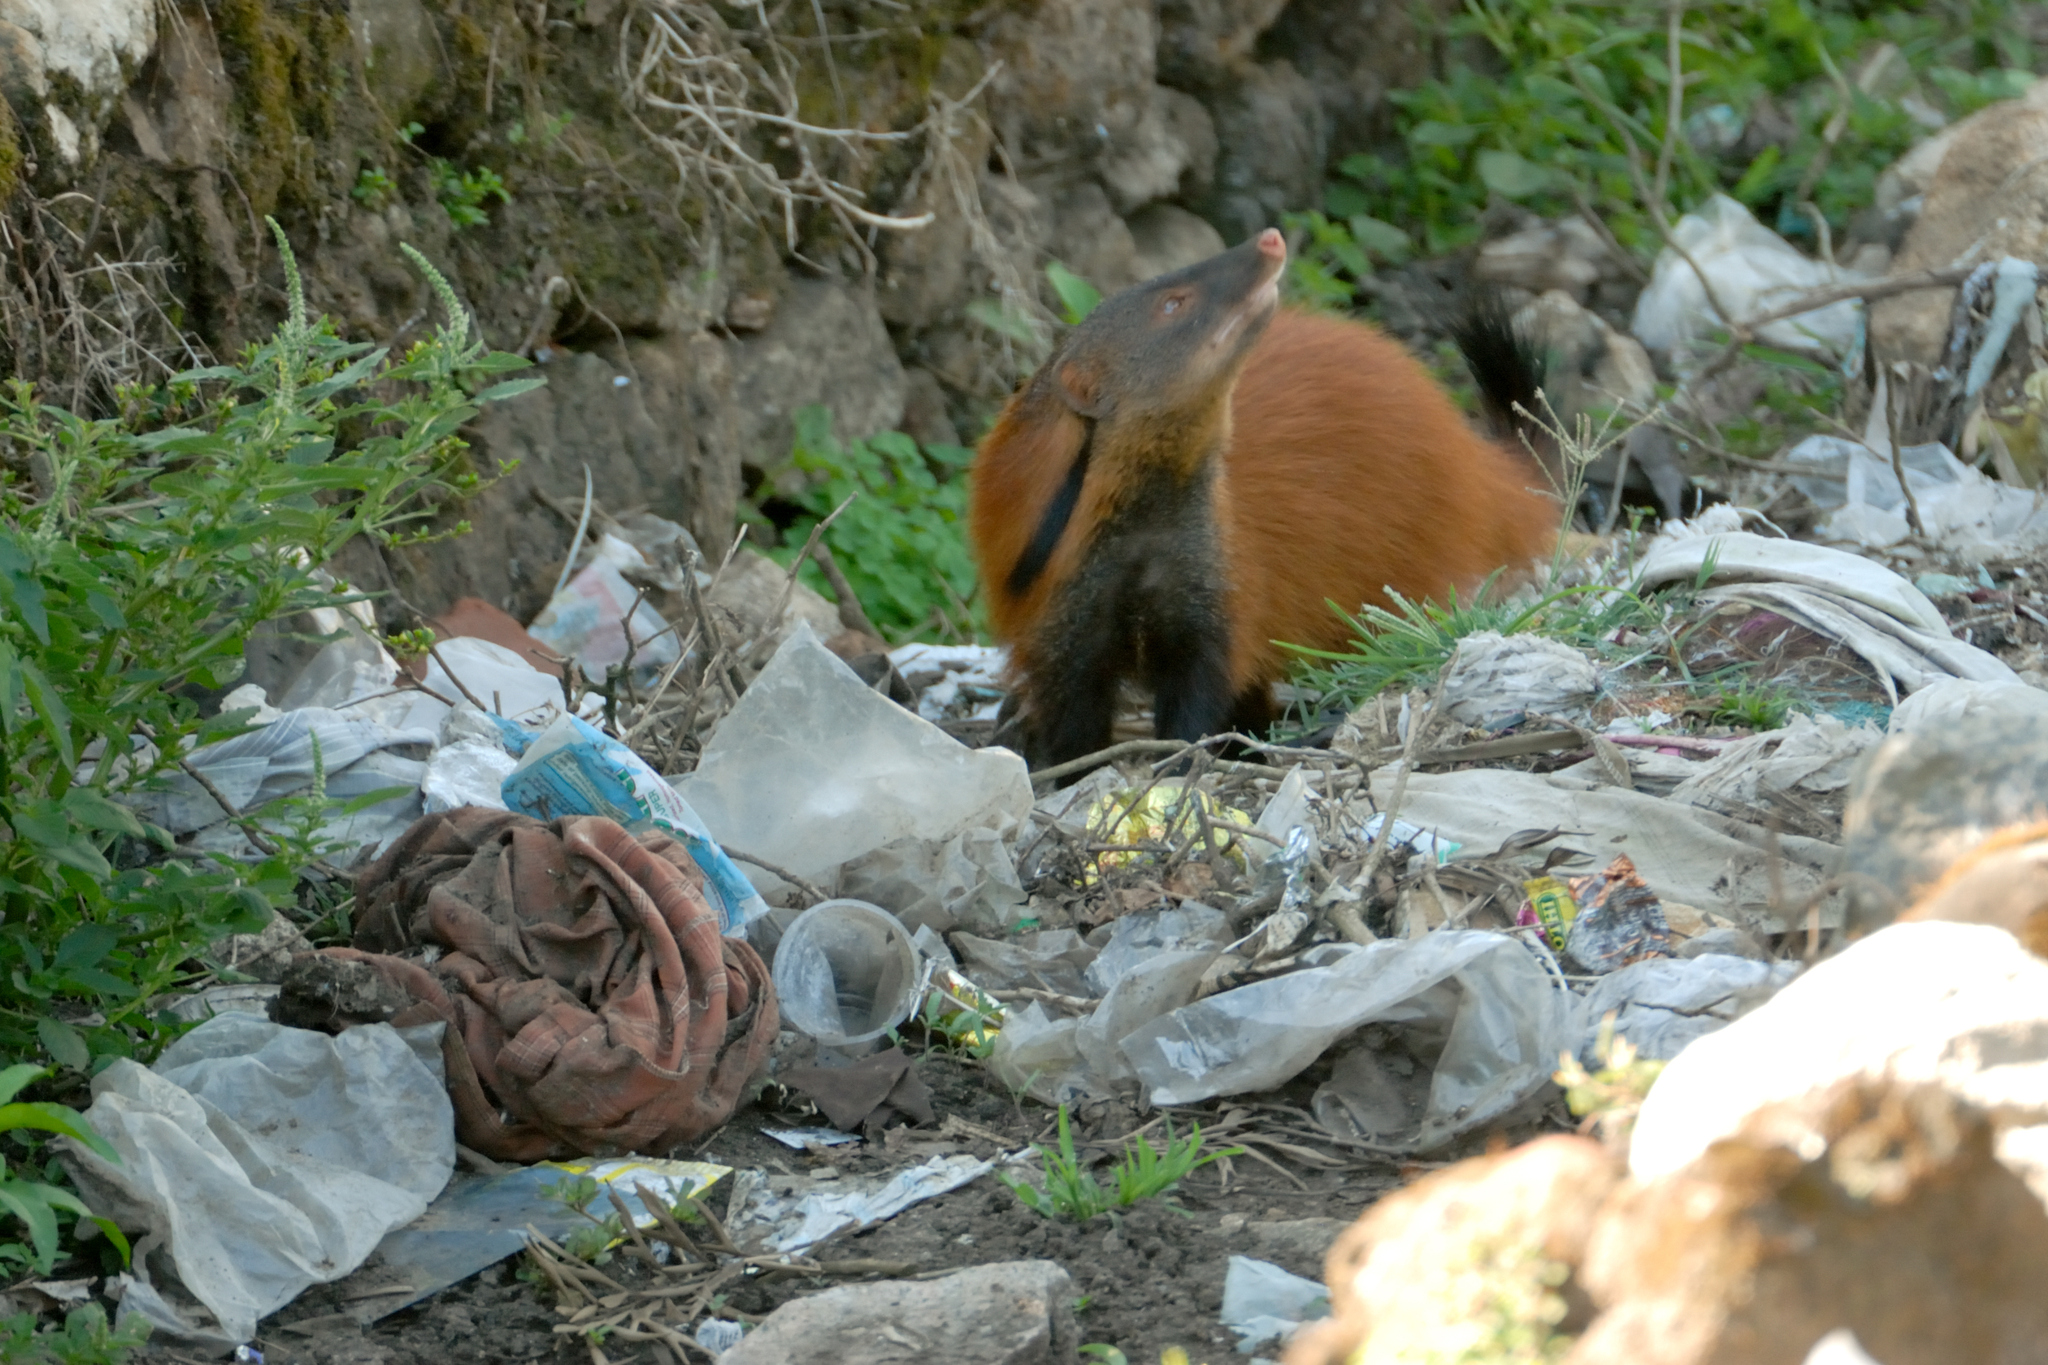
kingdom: Animalia
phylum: Chordata
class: Mammalia
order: Carnivora
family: Herpestidae
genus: Herpestes
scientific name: Herpestes vitticollis
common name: Stripe-necked mongoose
